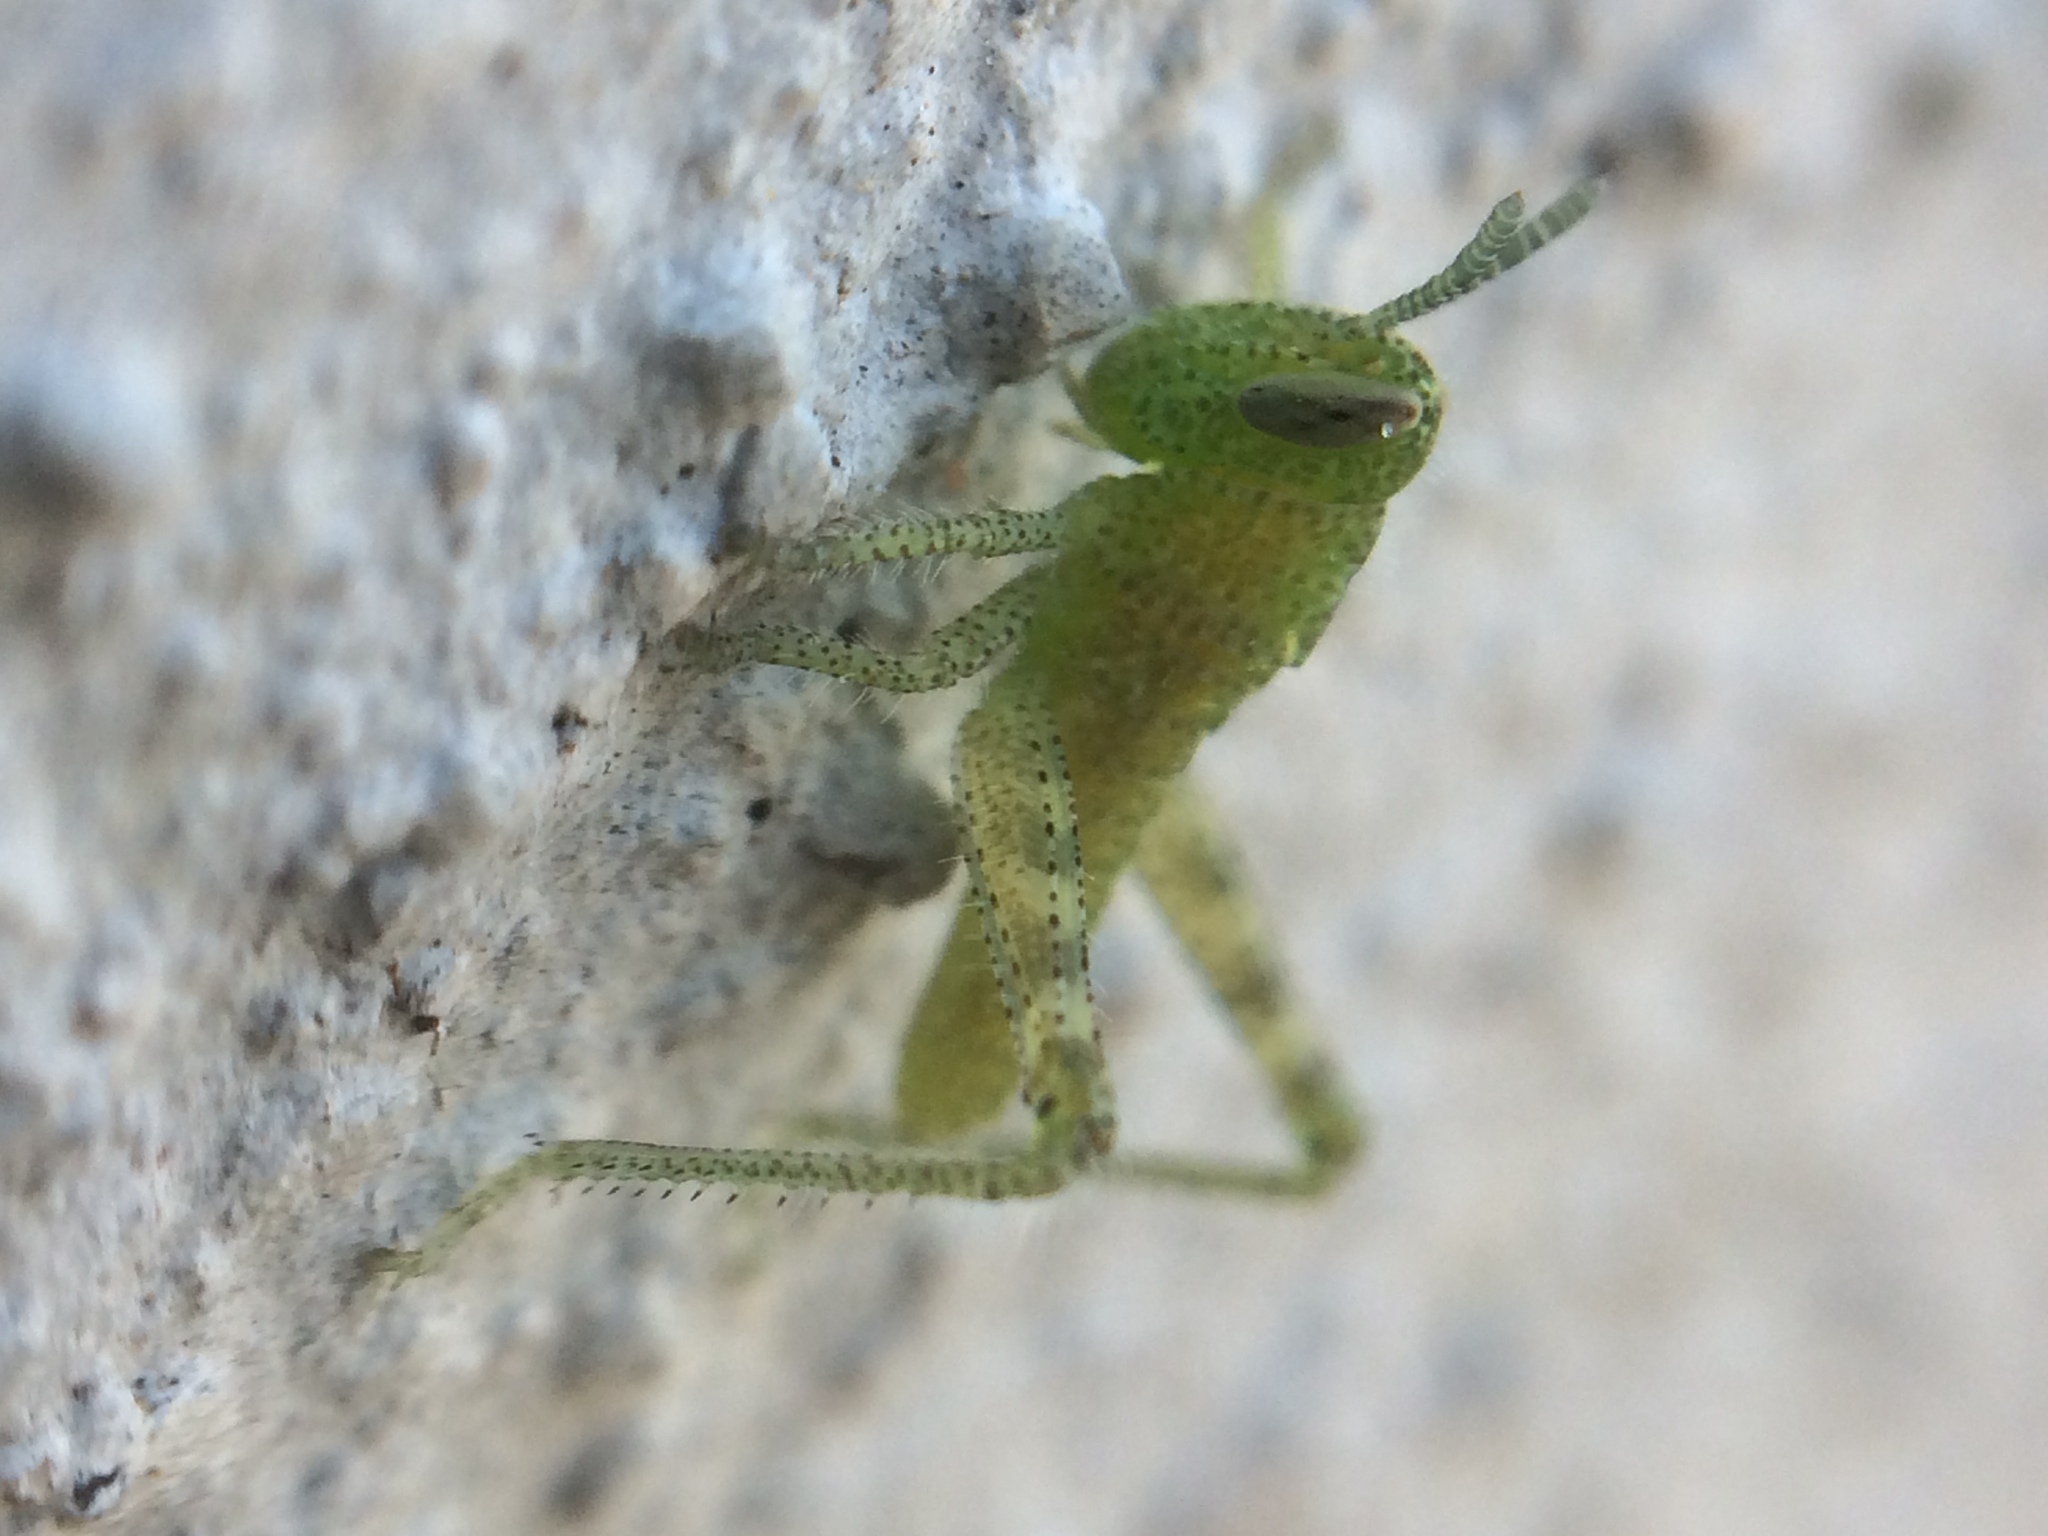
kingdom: Animalia
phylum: Arthropoda
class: Insecta
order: Orthoptera
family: Acrididae
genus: Schistocerca
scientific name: Schistocerca nitens
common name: Vagrant grasshopper
